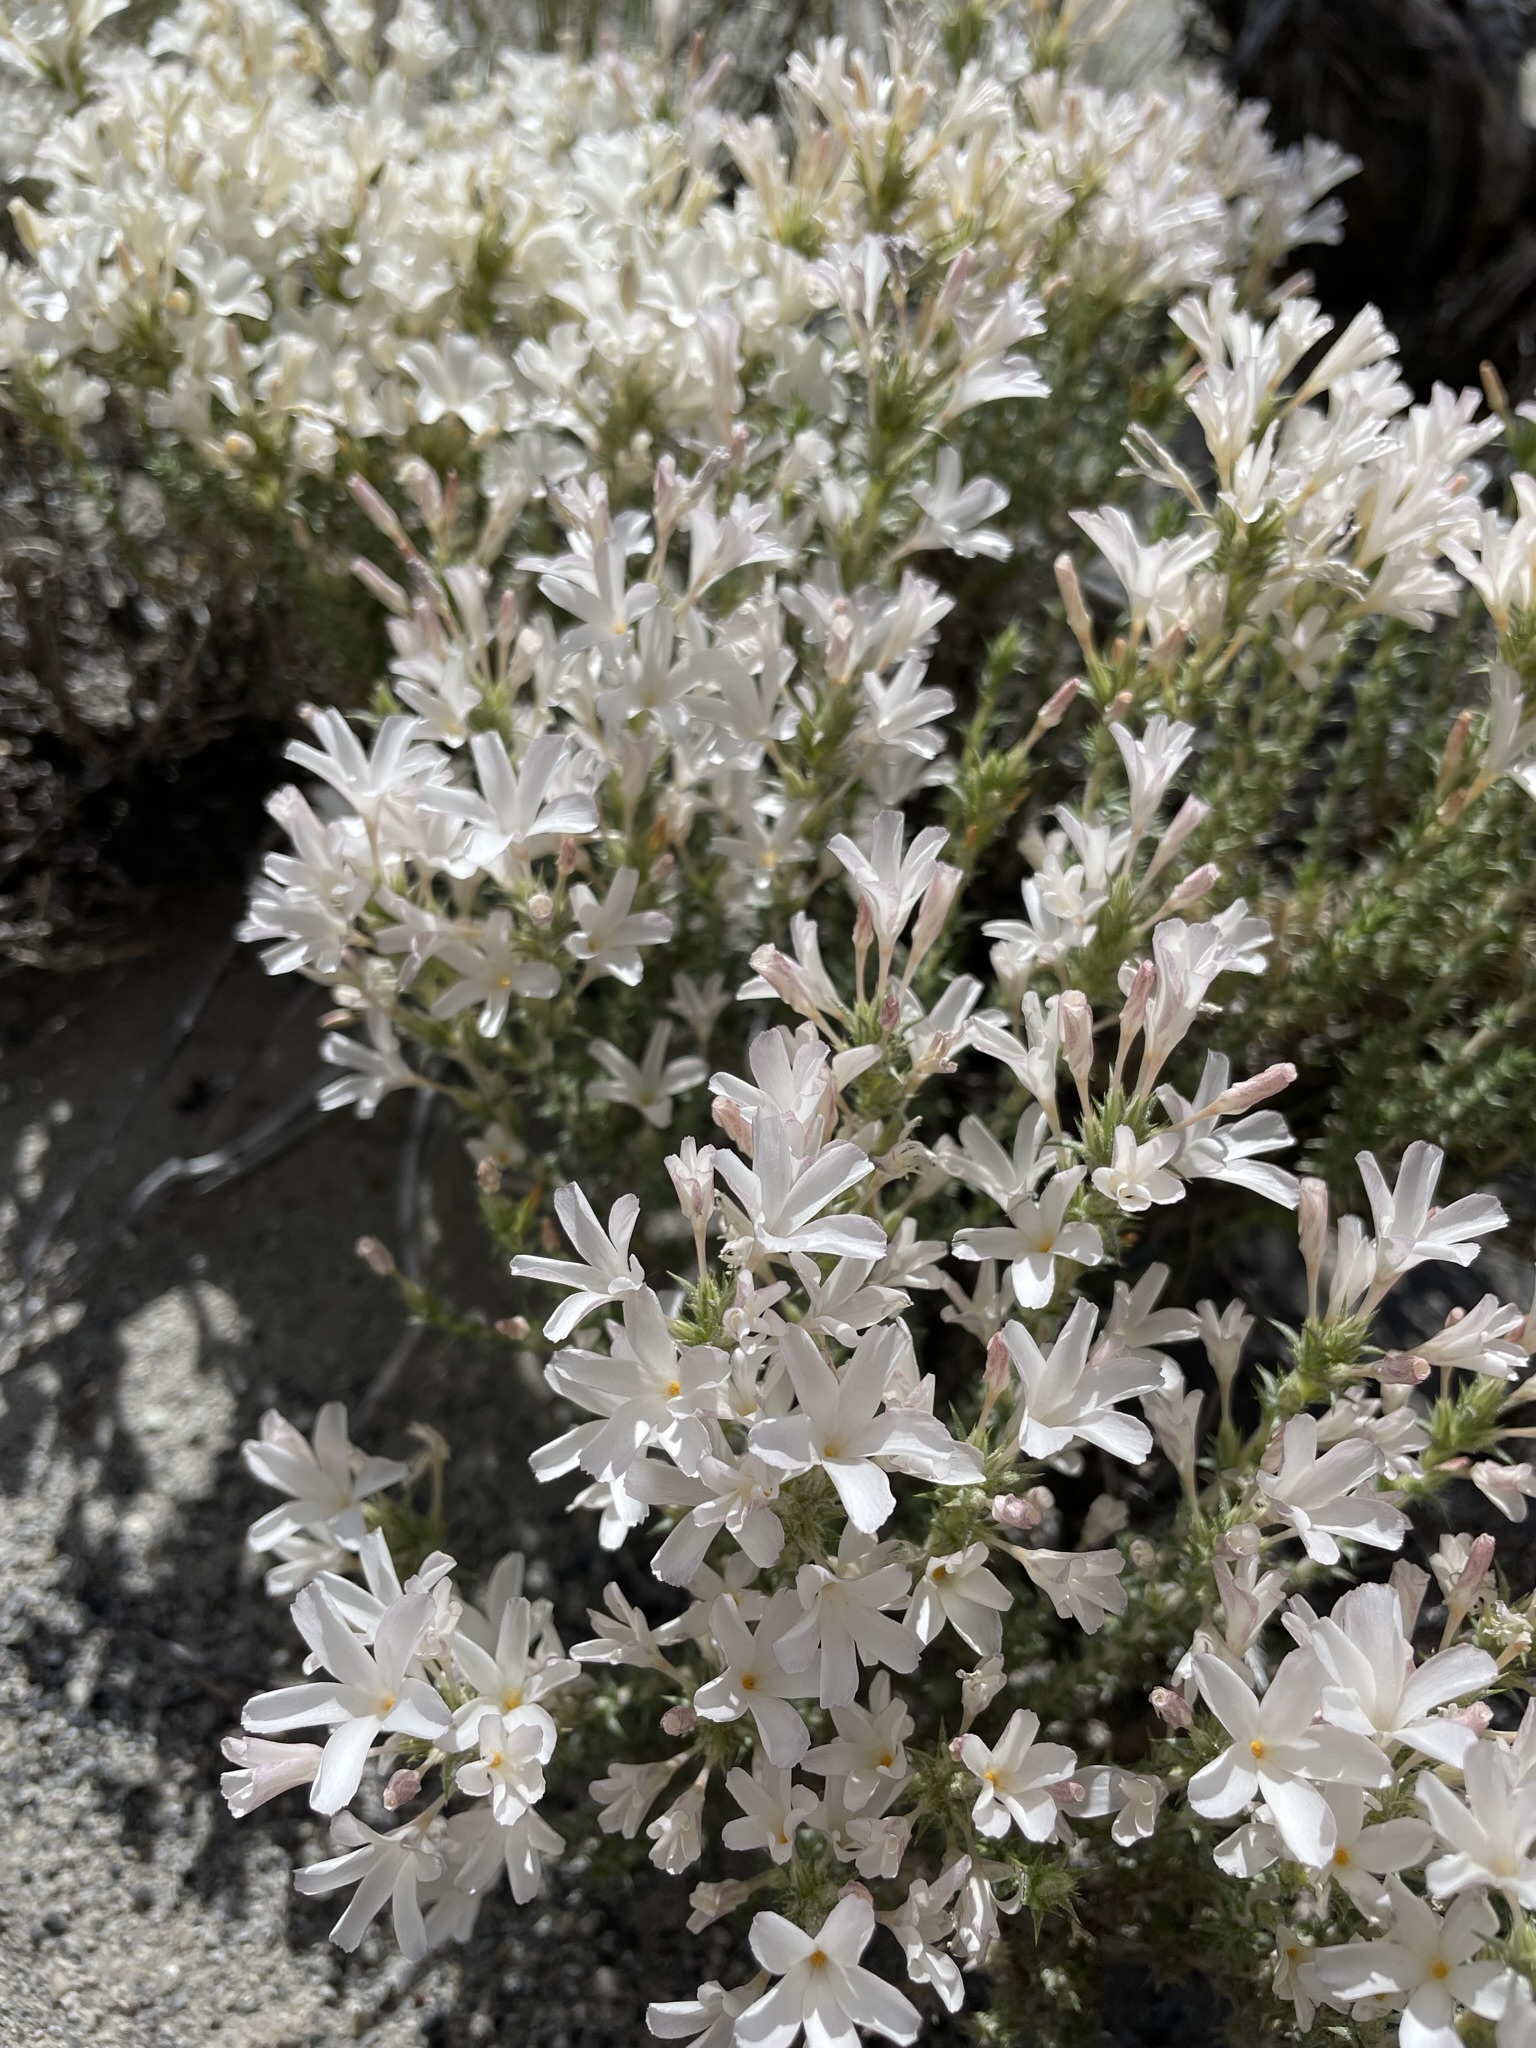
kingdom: Plantae
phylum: Tracheophyta
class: Magnoliopsida
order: Ericales
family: Polemoniaceae
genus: Linanthus
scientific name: Linanthus pungens
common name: Granite prickly phlox
